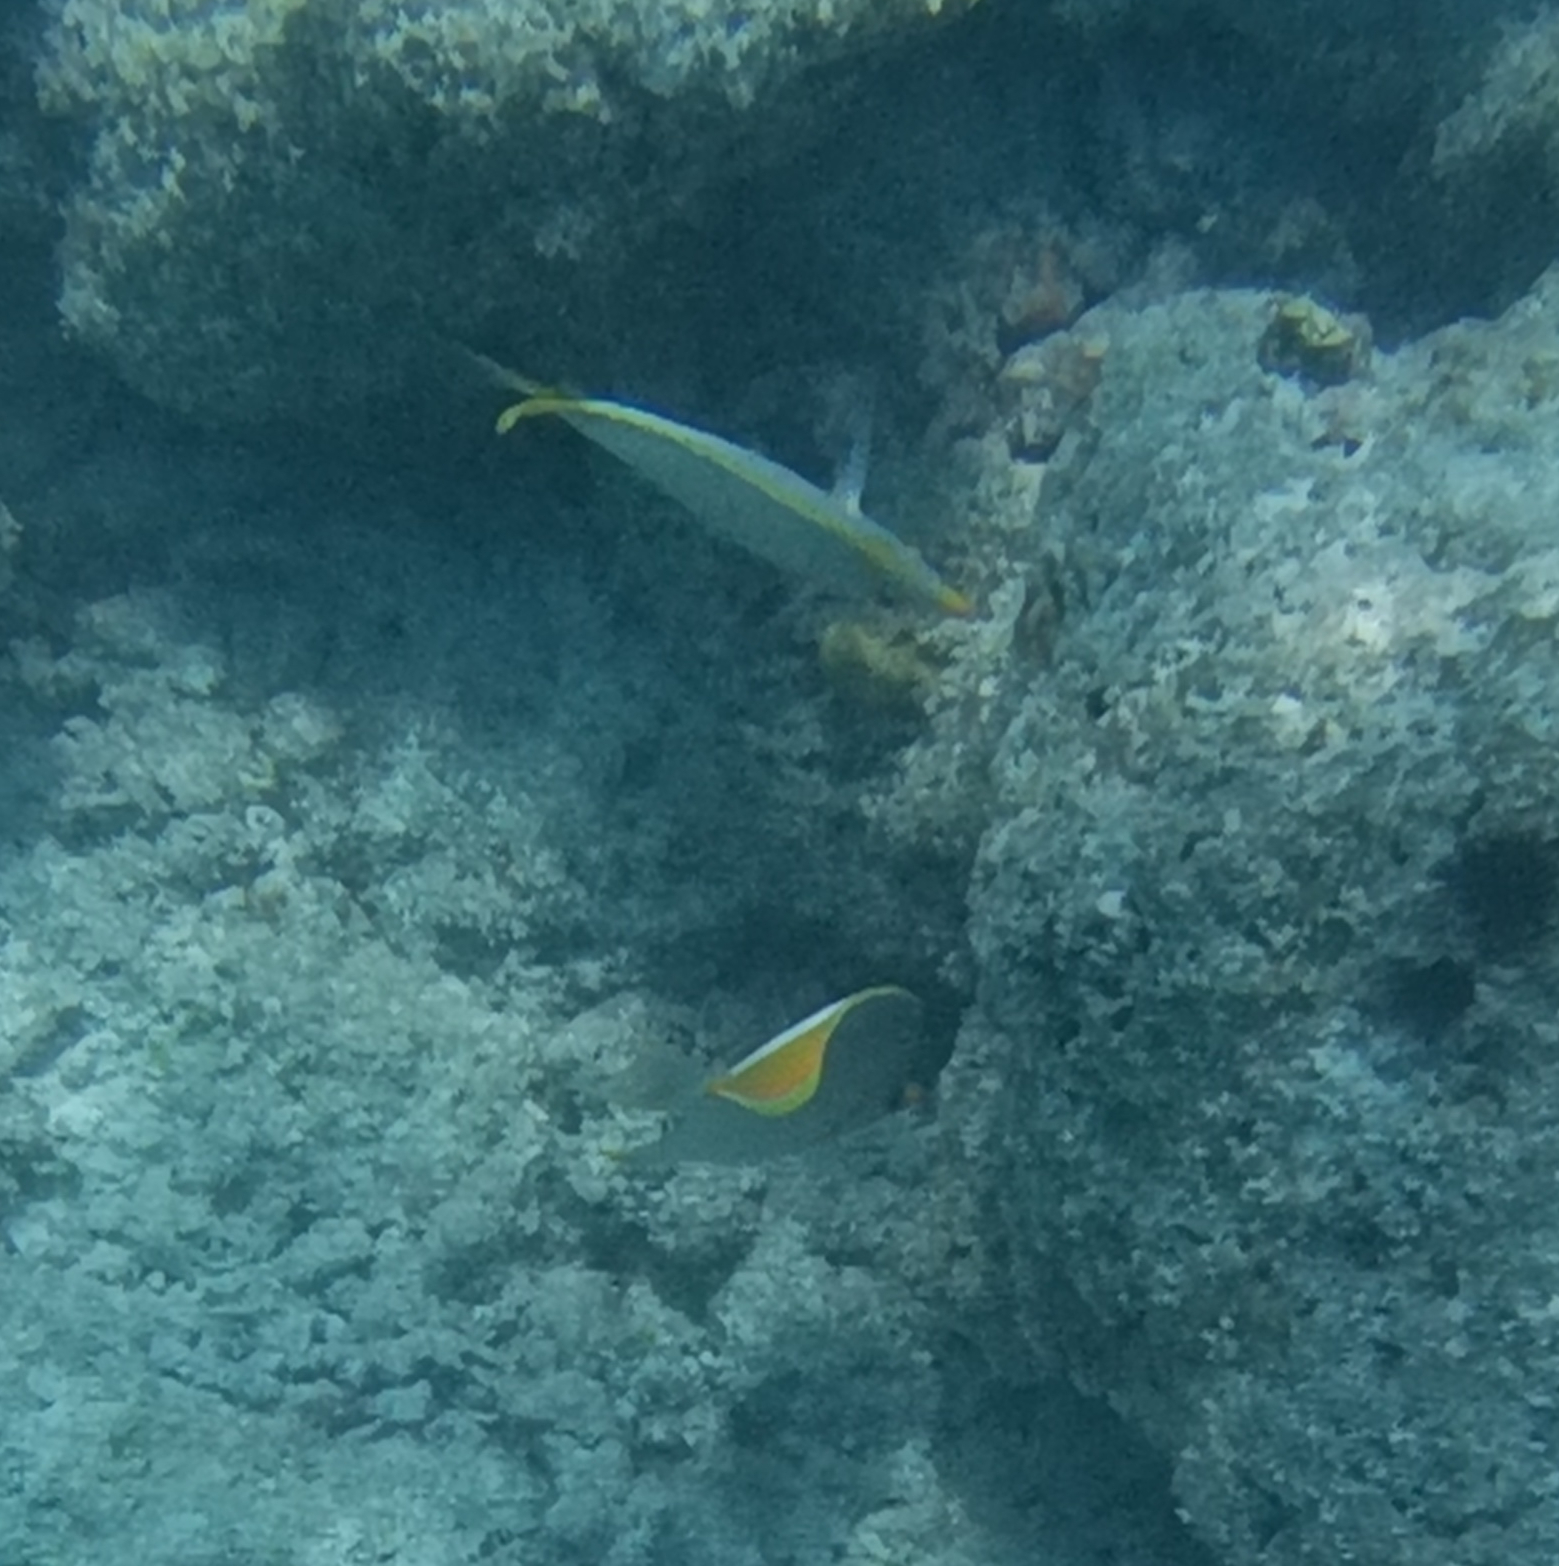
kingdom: Animalia
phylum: Chordata
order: Perciformes
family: Chaetodontidae
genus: Chaetodon
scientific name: Chaetodon xanthocephalus
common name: Yellowhead butterflyfish
